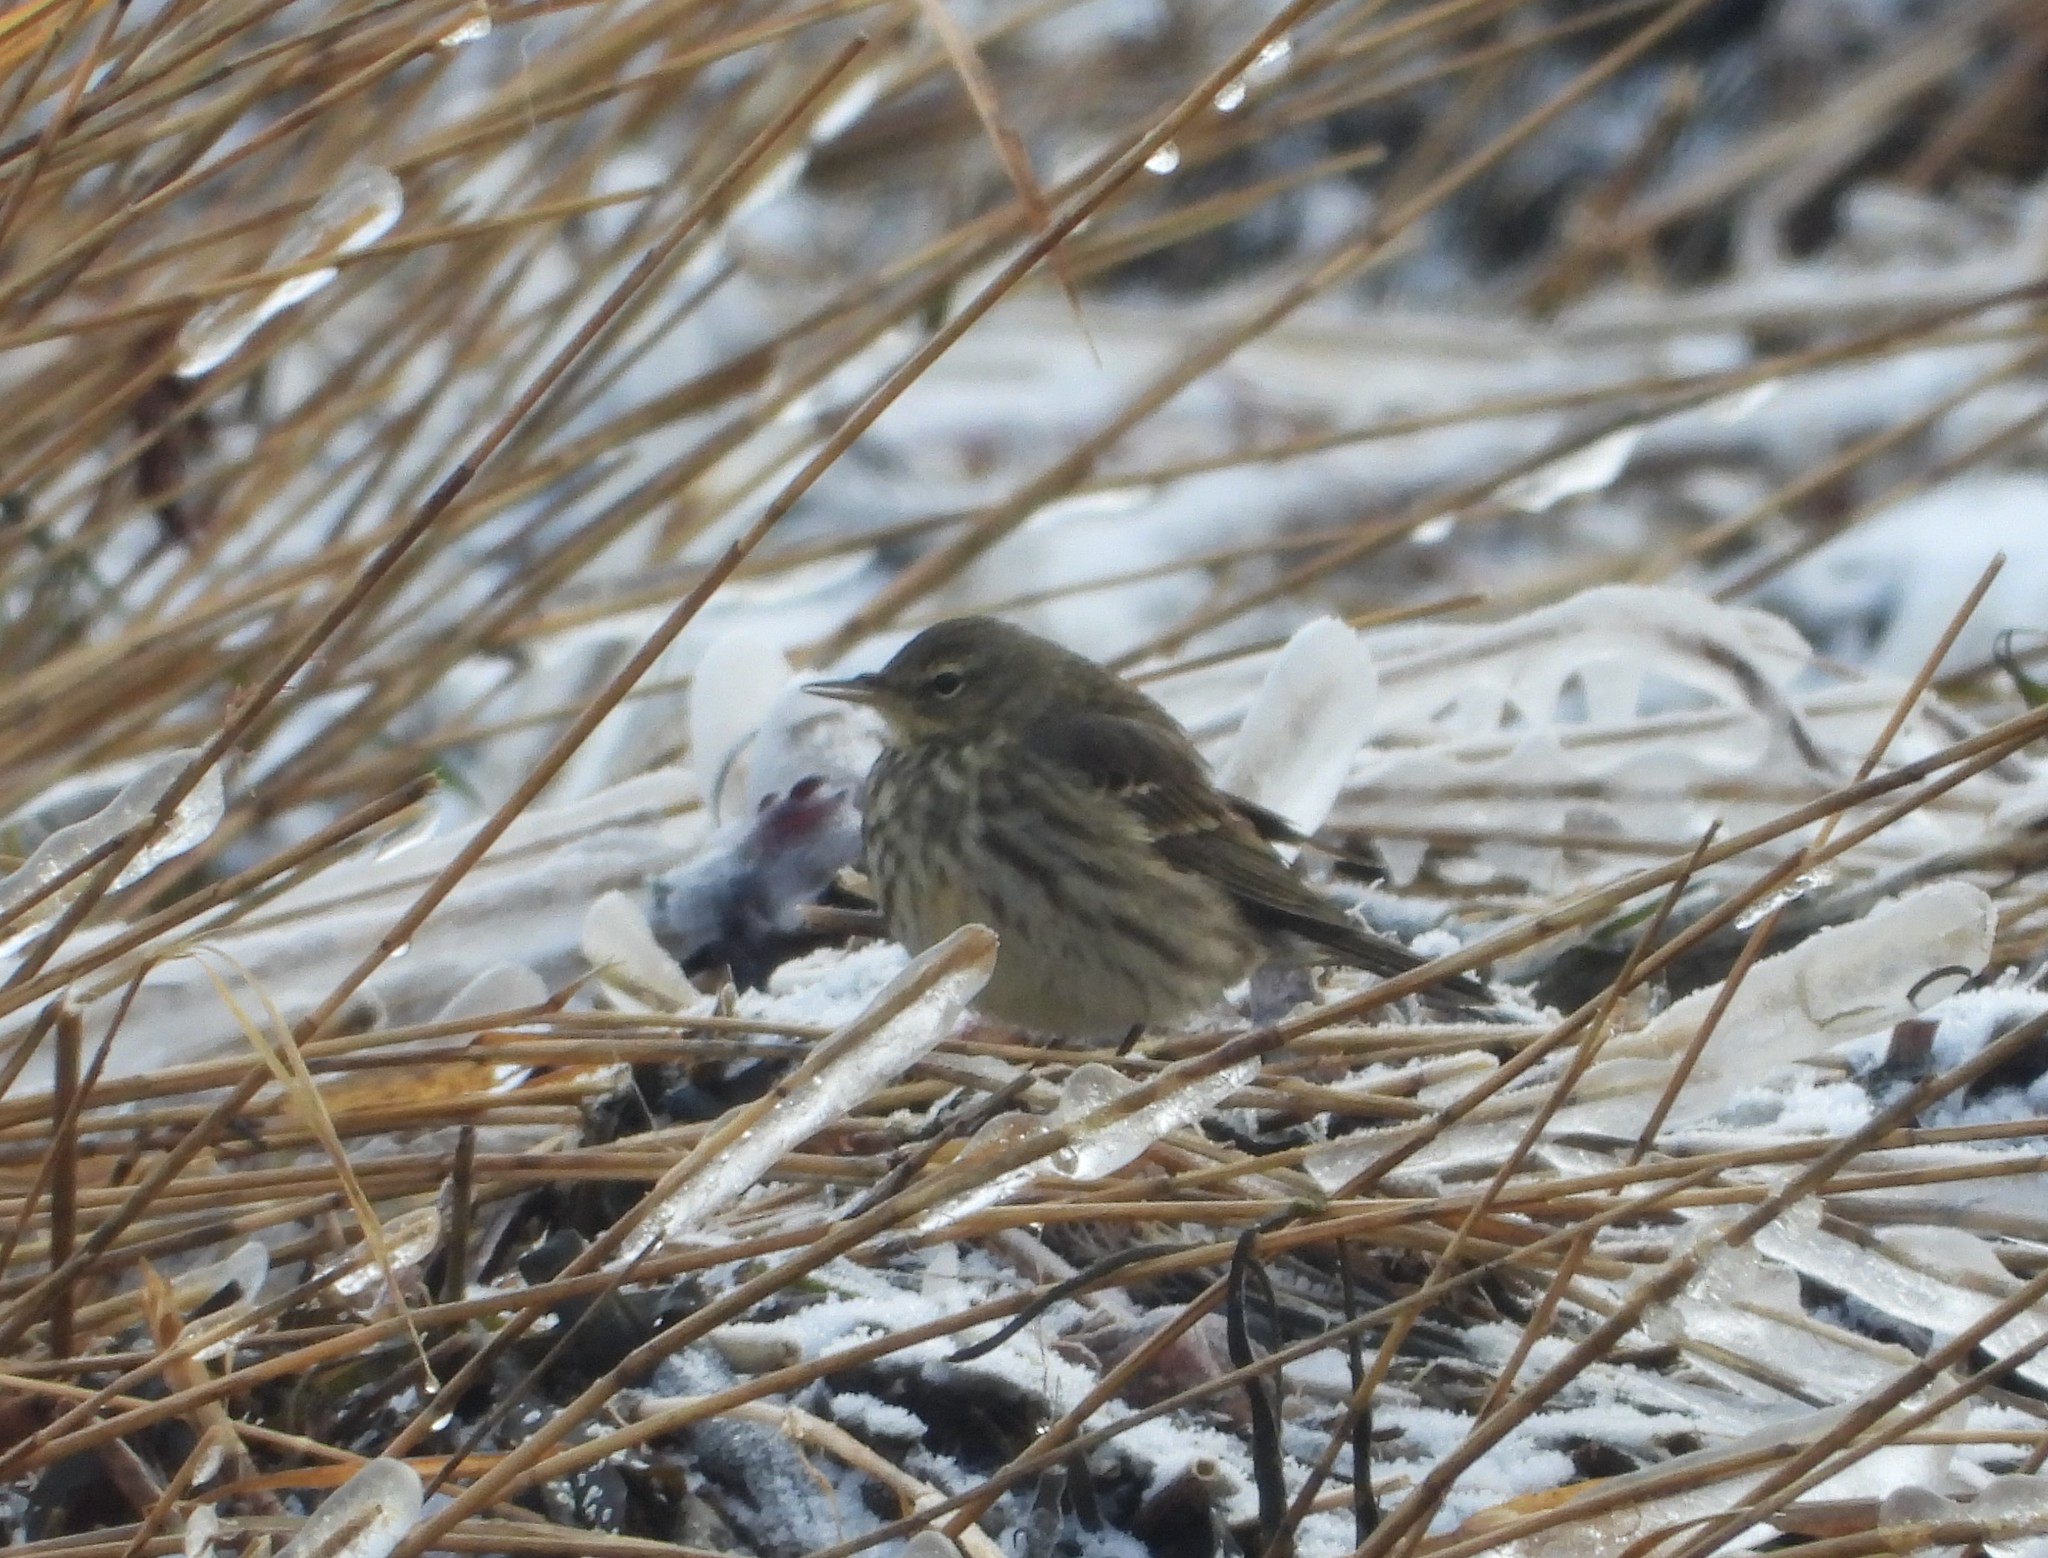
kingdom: Animalia
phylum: Chordata
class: Aves
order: Passeriformes
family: Motacillidae
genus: Anthus
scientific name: Anthus petrosus
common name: Eurasian rock pipit
